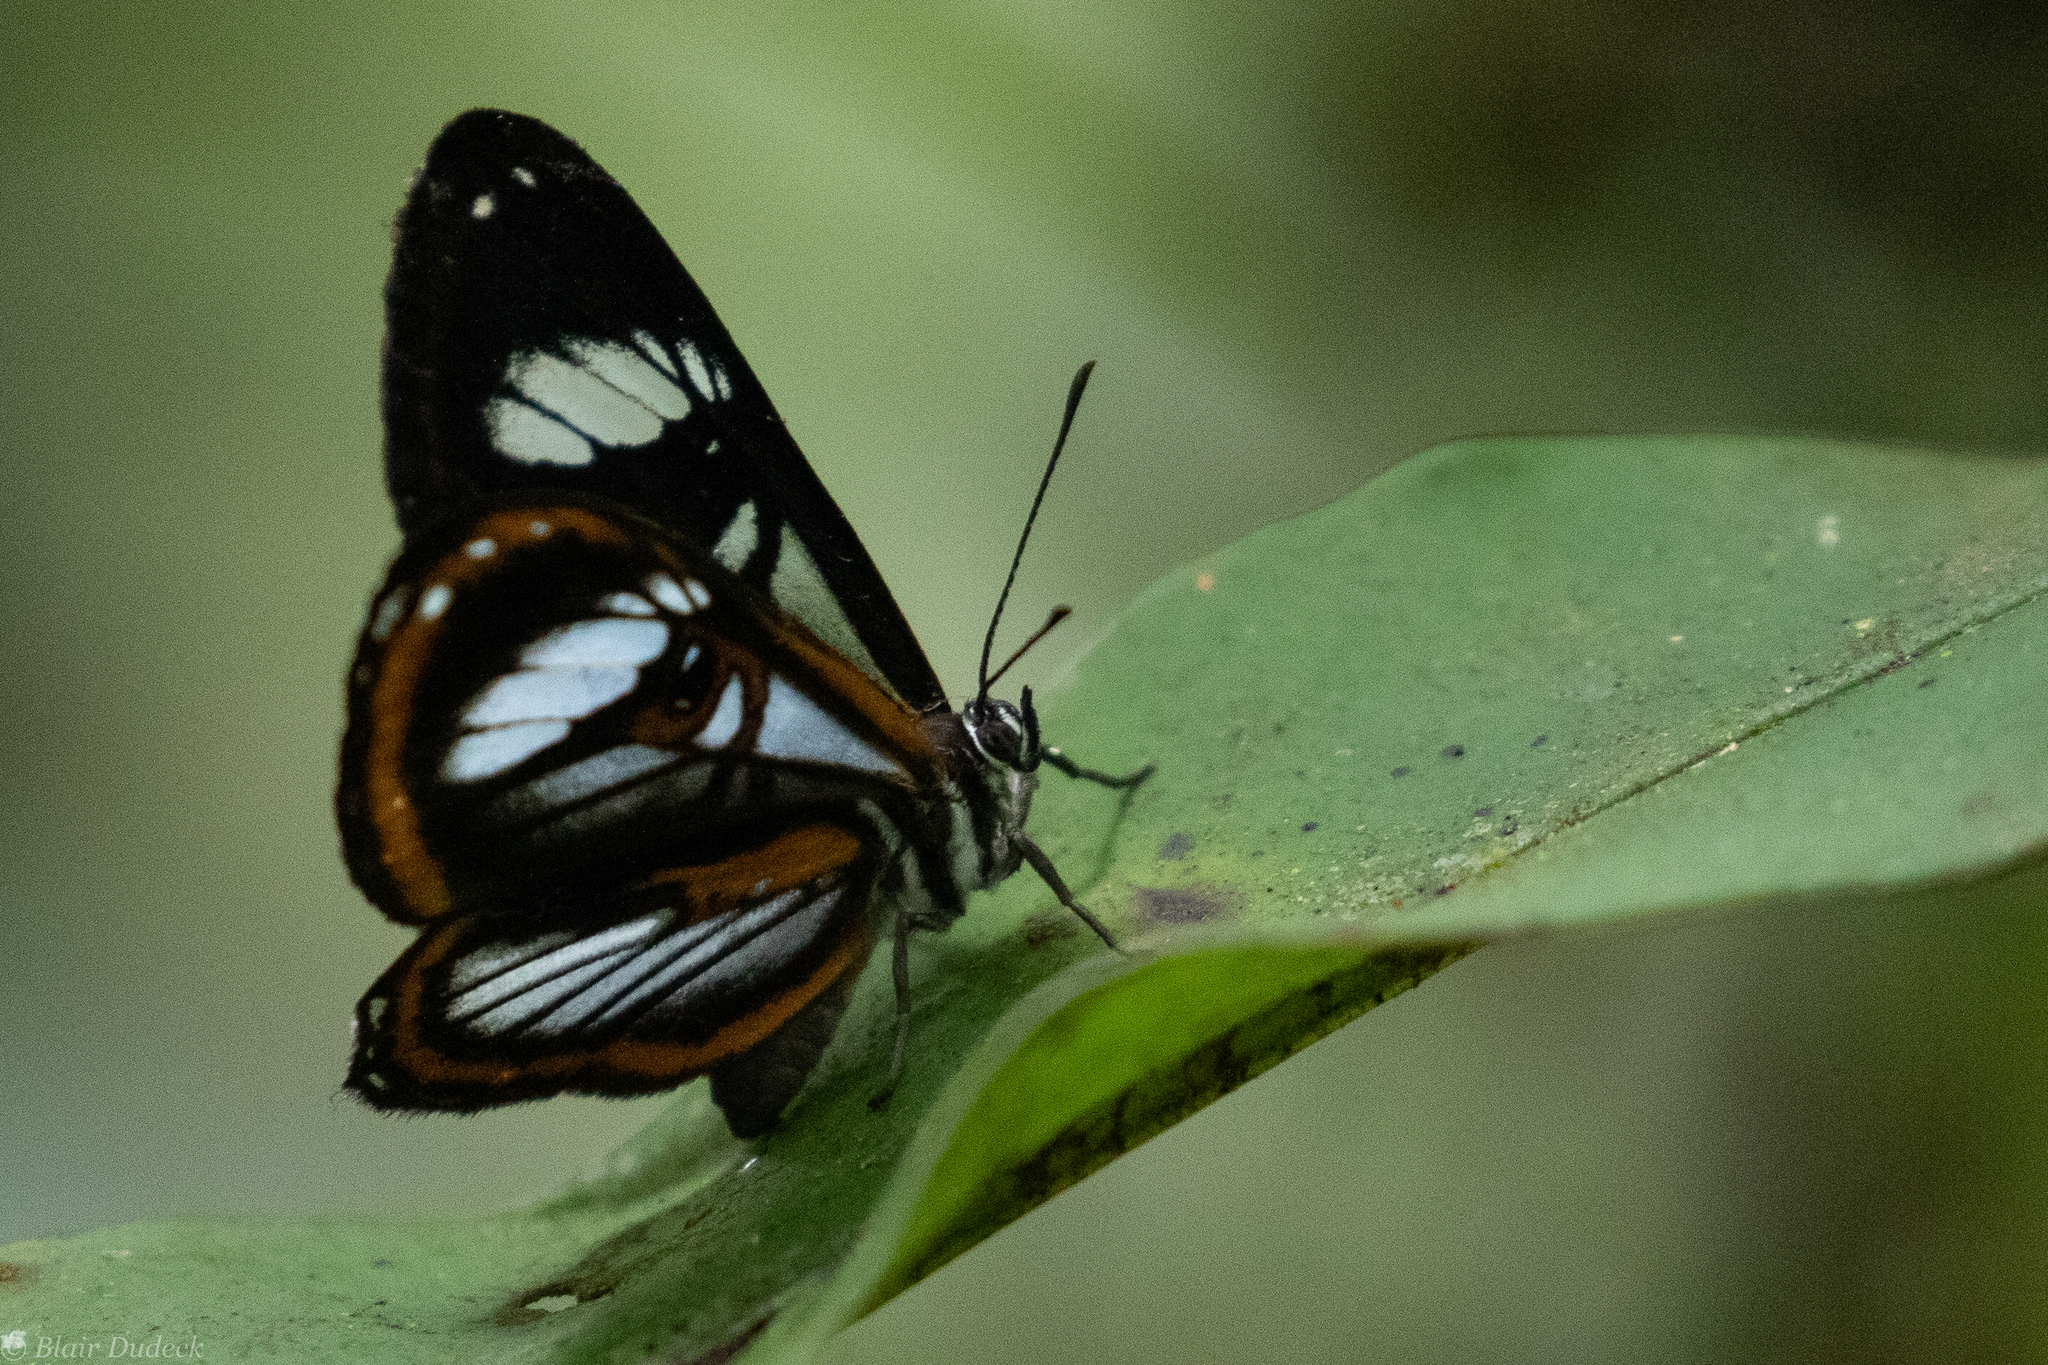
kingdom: Animalia
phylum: Arthropoda
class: Insecta
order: Lepidoptera
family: Riodinidae
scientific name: Riodinidae
